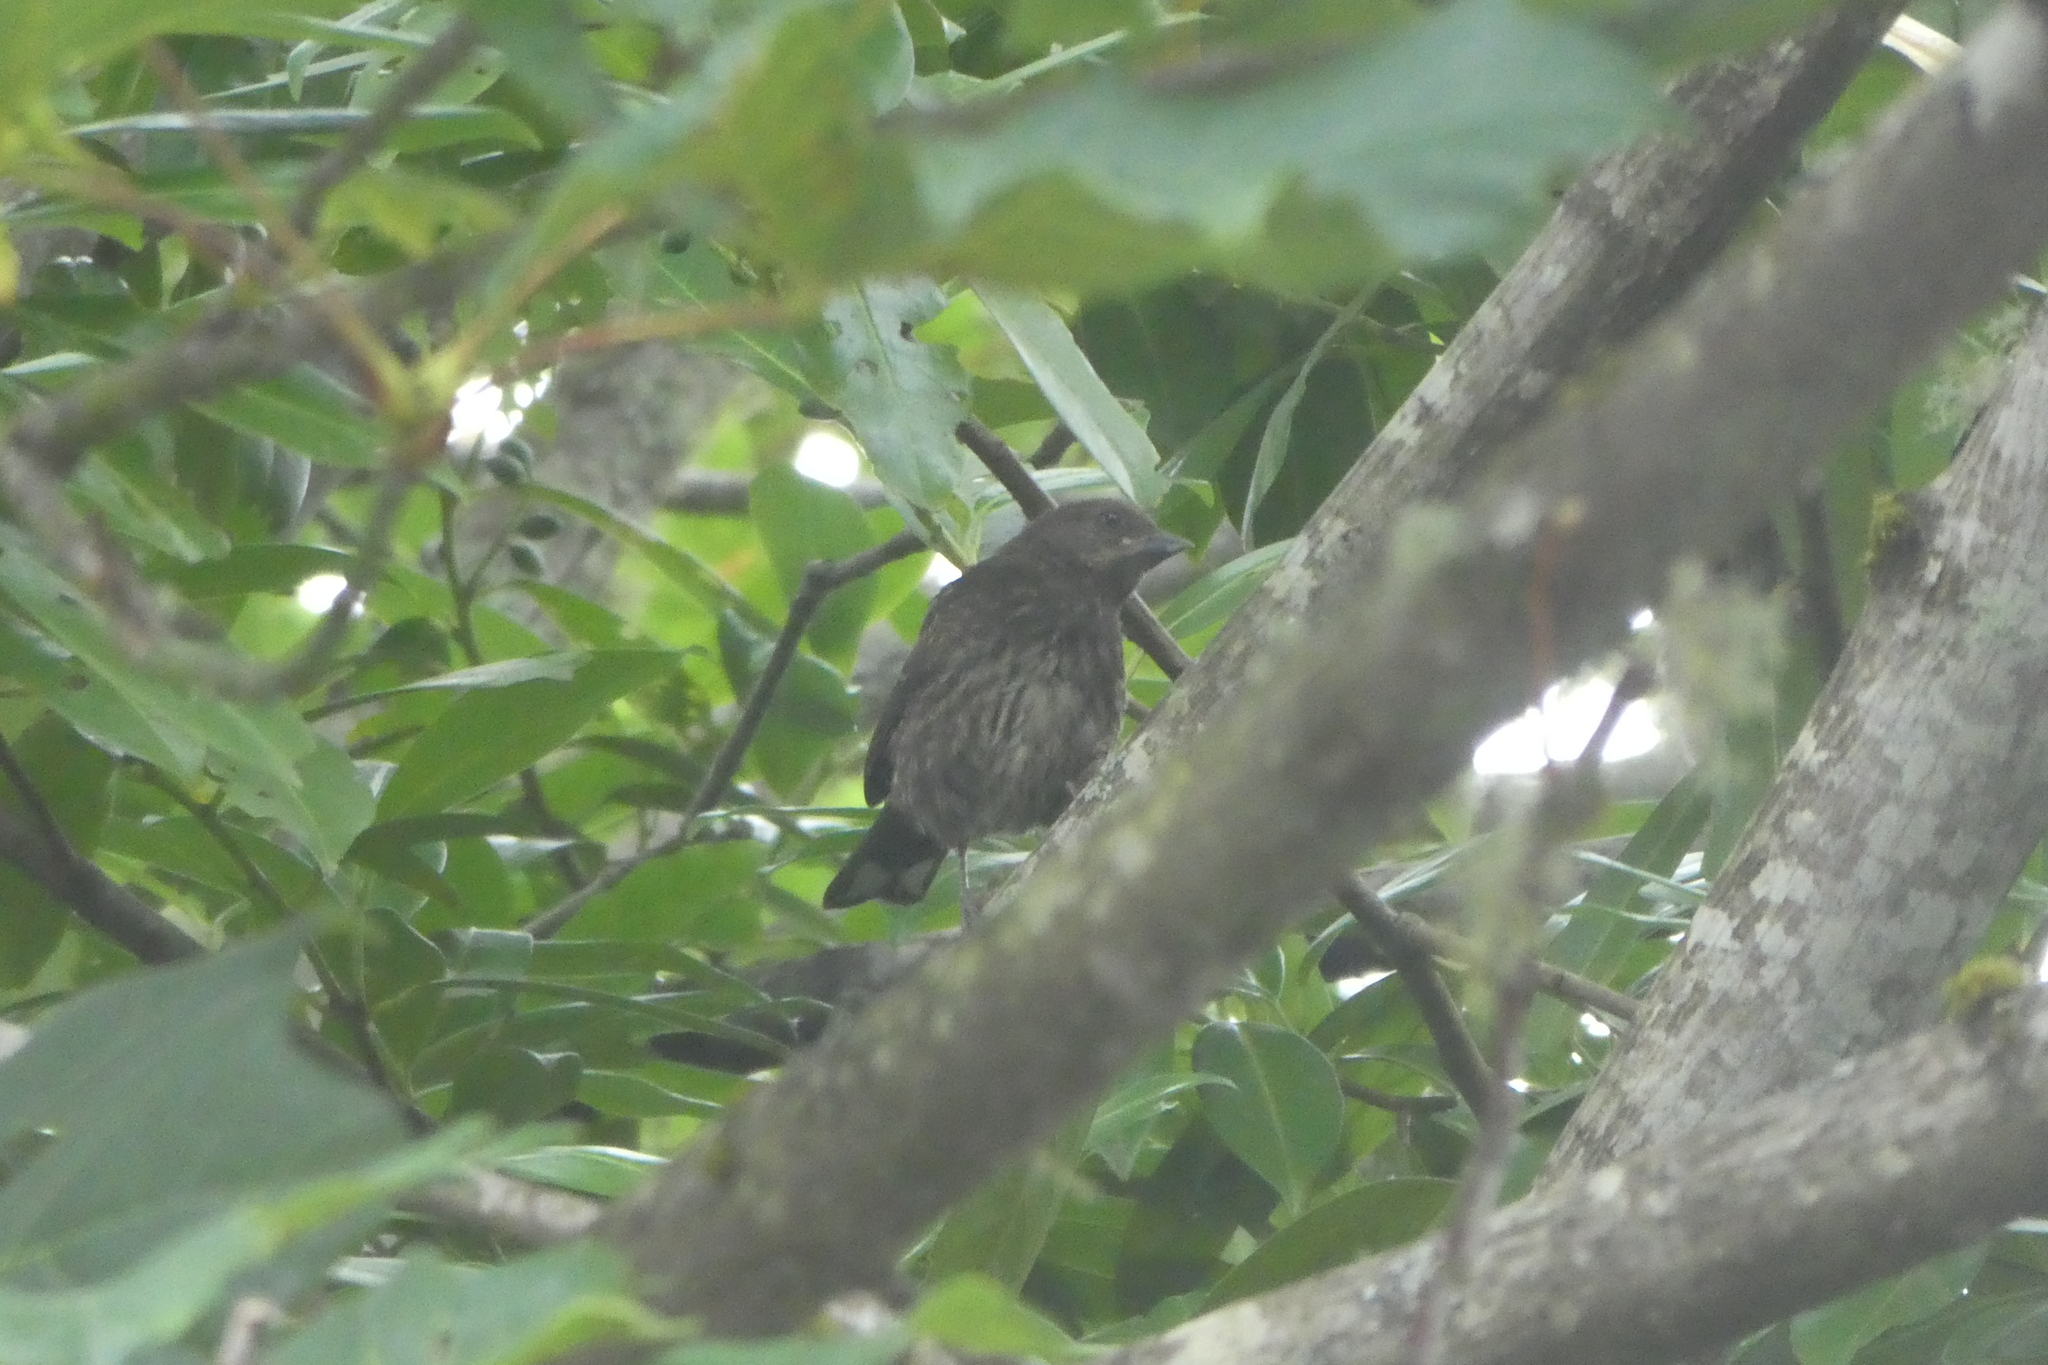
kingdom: Animalia
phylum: Chordata
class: Aves
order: Passeriformes
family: Passerellidae
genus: Pipilo
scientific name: Pipilo maculatus
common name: Spotted towhee
